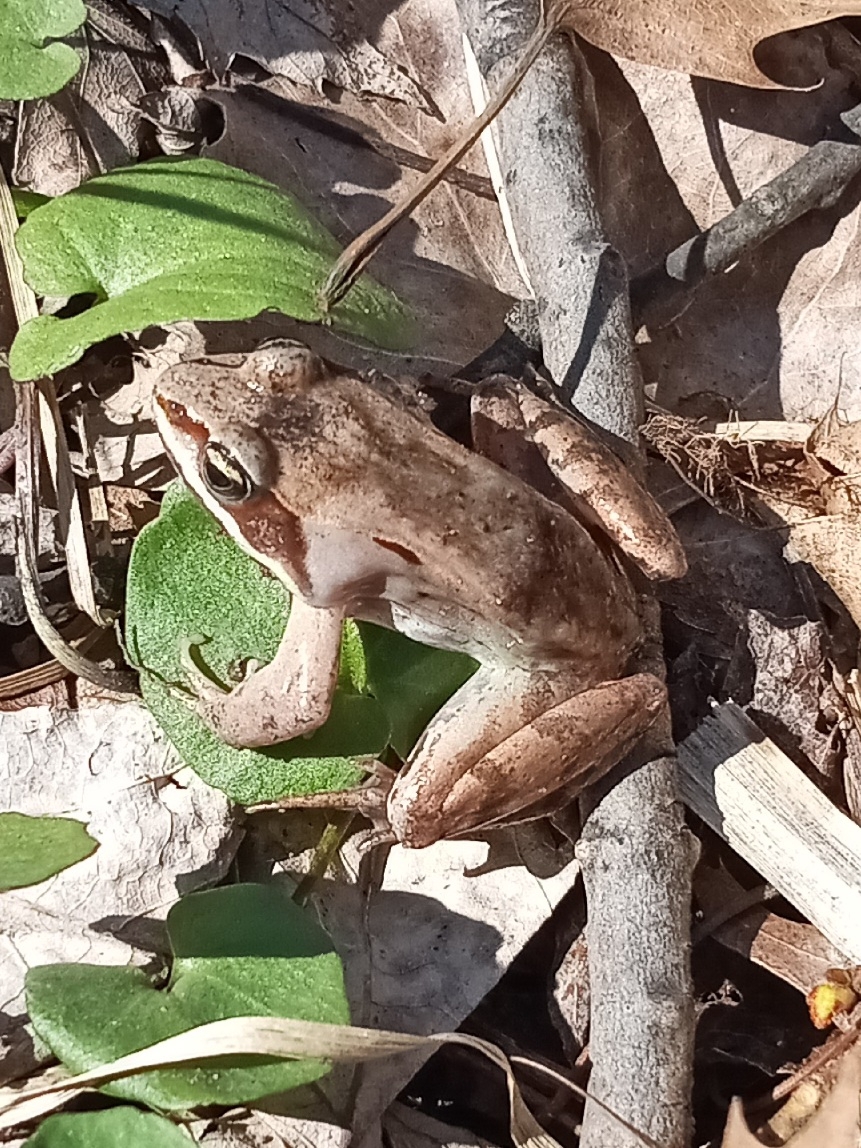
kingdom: Animalia
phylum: Chordata
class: Amphibia
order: Anura
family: Ranidae
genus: Lithobates
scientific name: Lithobates sylvaticus
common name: Wood frog
